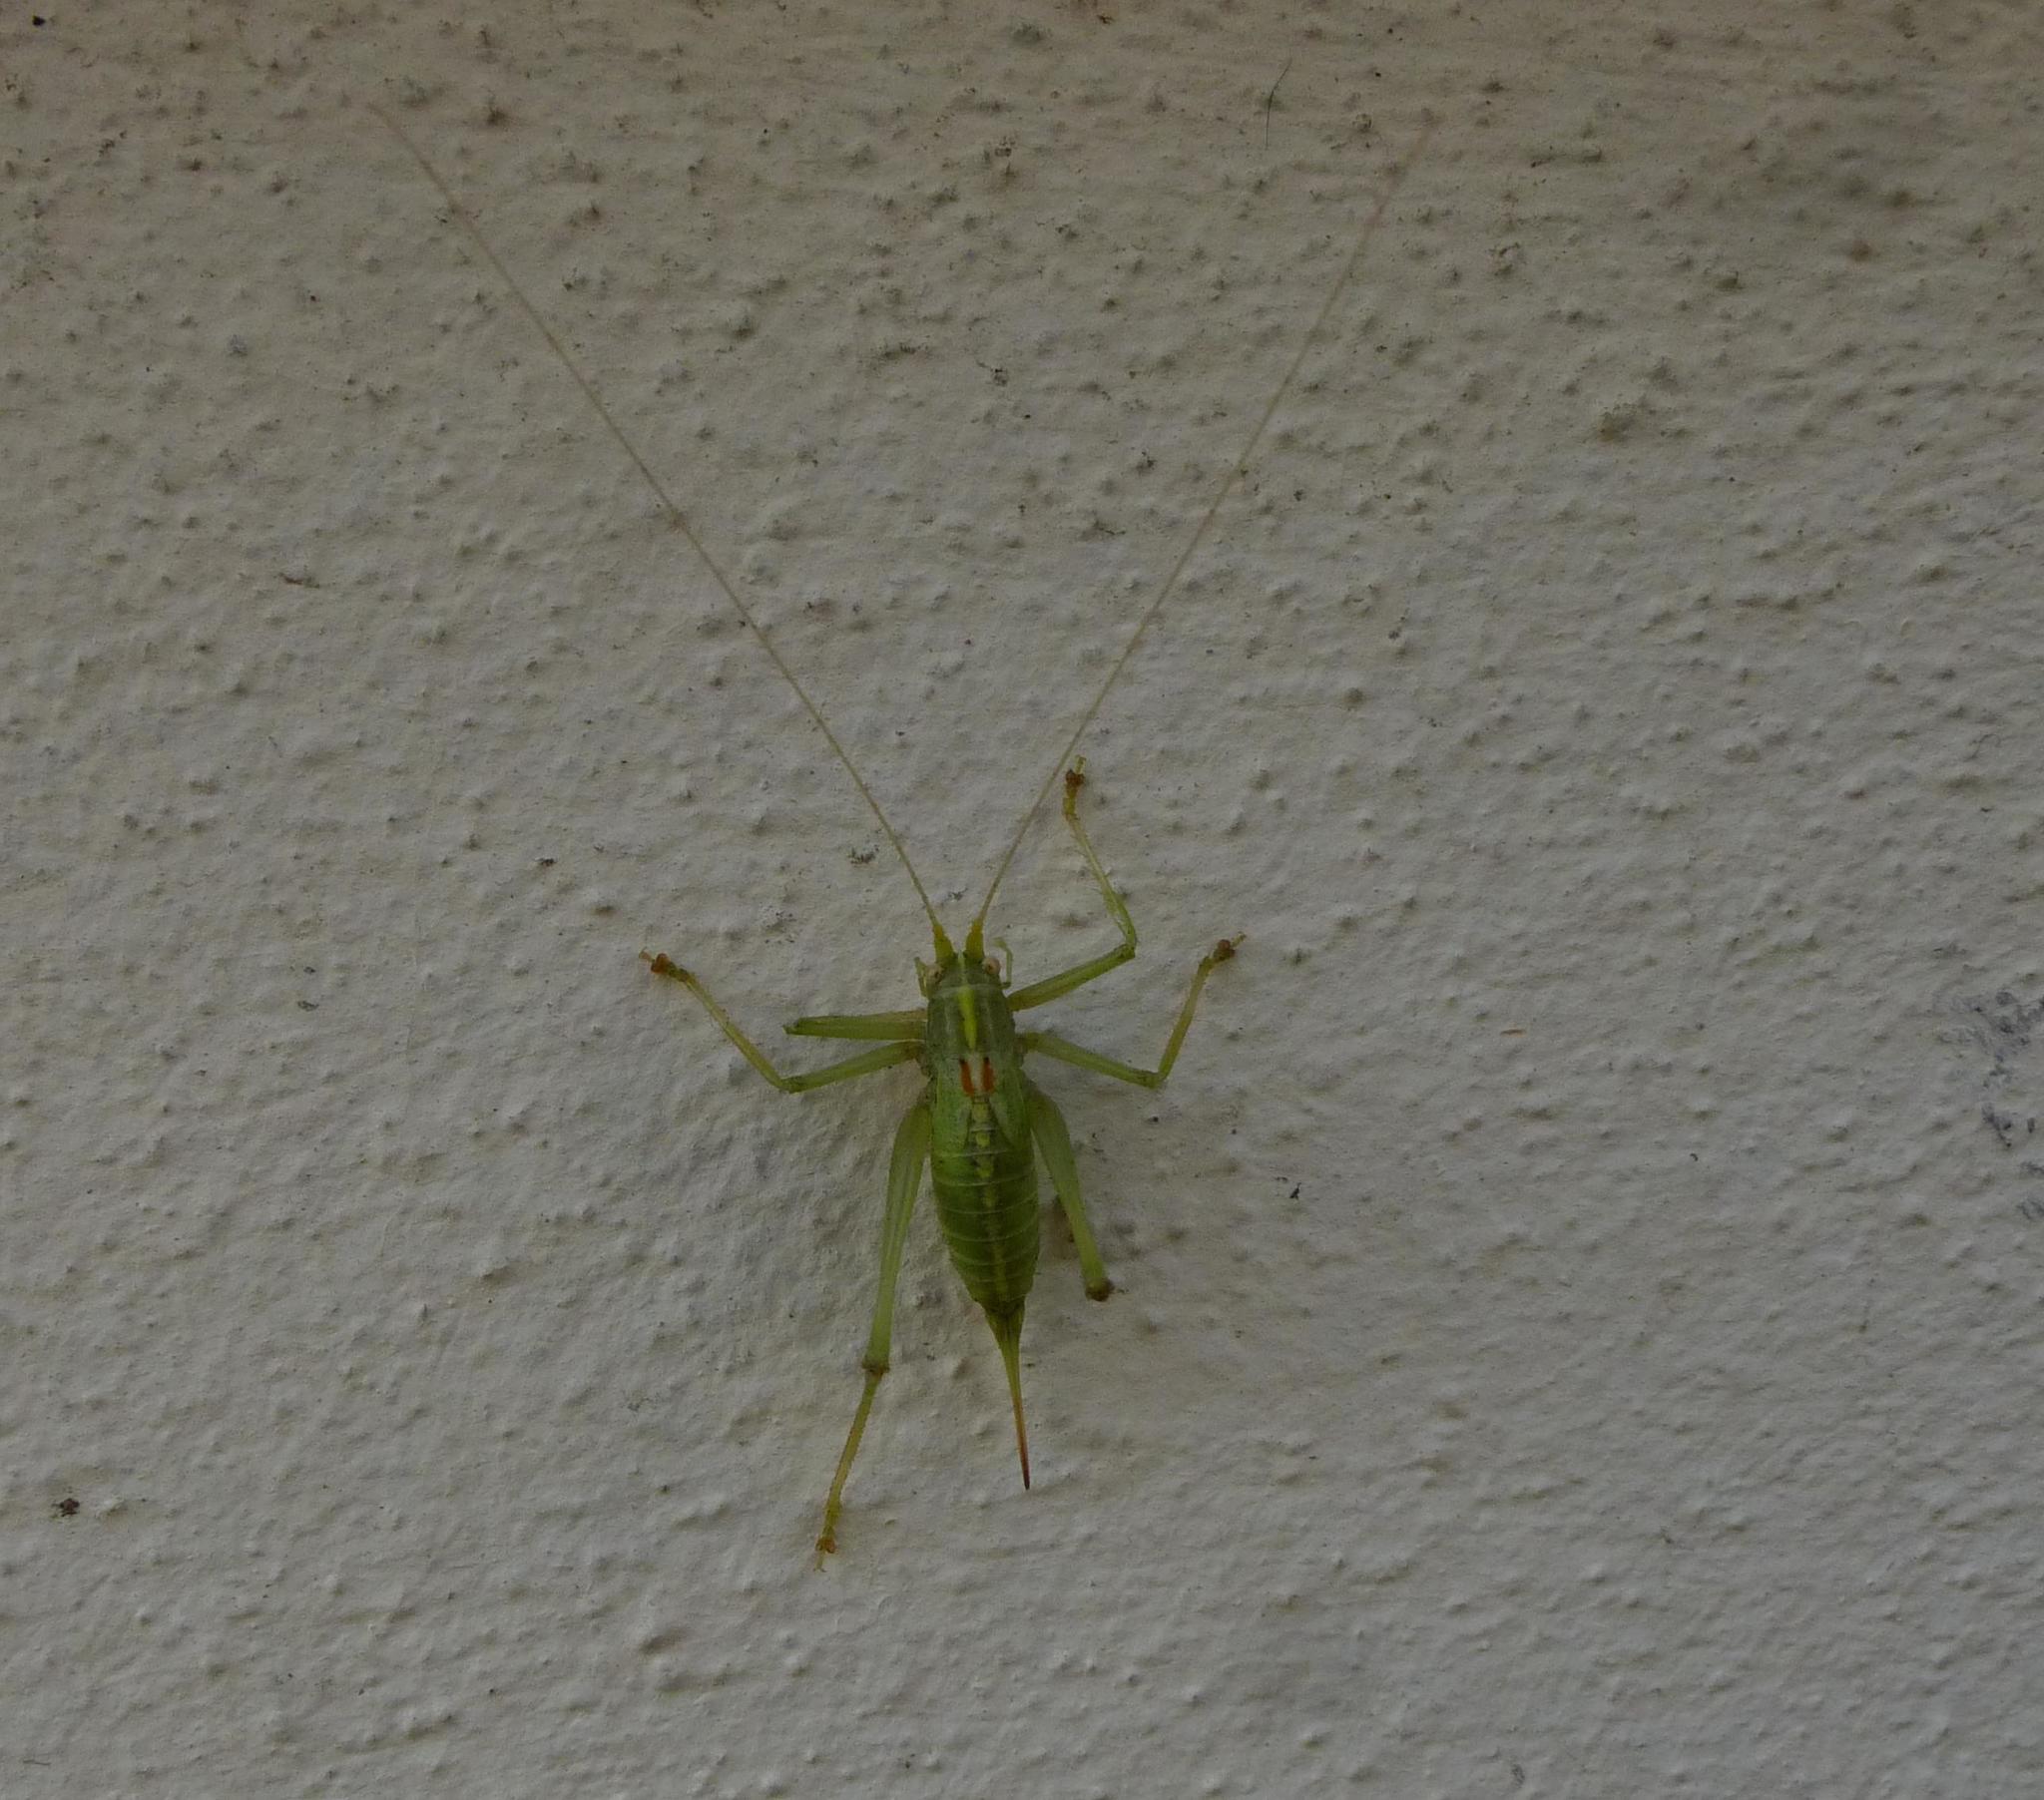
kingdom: Animalia
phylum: Arthropoda
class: Insecta
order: Orthoptera
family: Tettigoniidae
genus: Meconema
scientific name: Meconema meridionale
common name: Southern oak bush-cricket
